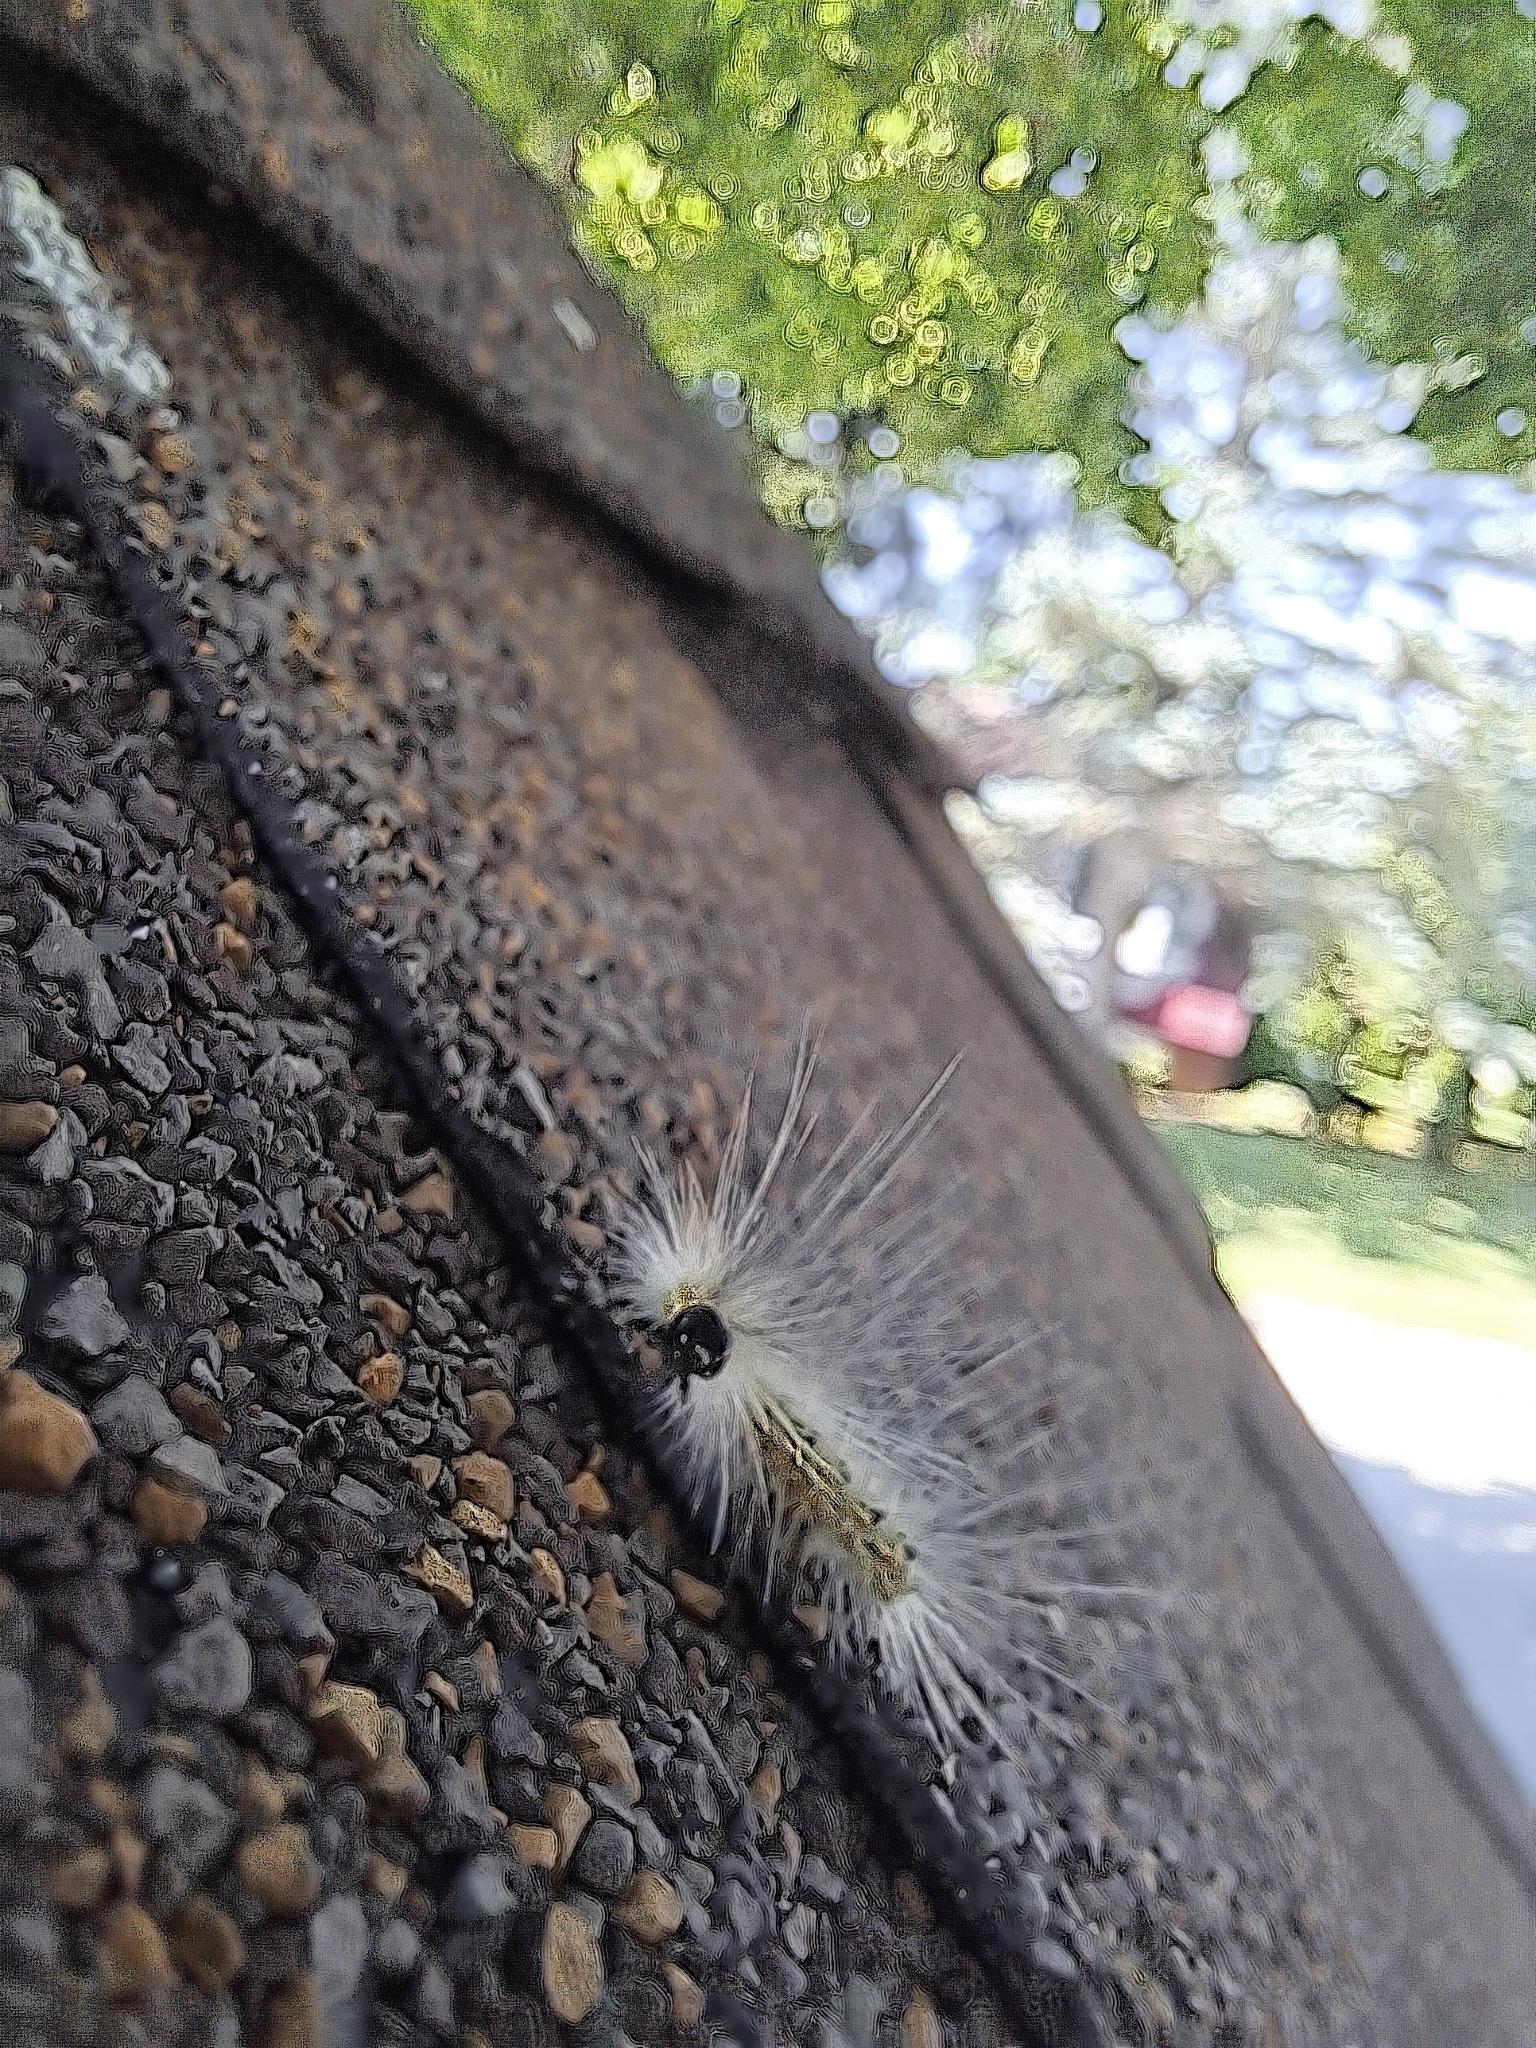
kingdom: Animalia
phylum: Arthropoda
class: Insecta
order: Lepidoptera
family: Erebidae
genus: Hyphantria
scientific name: Hyphantria cunea
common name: American white moth
